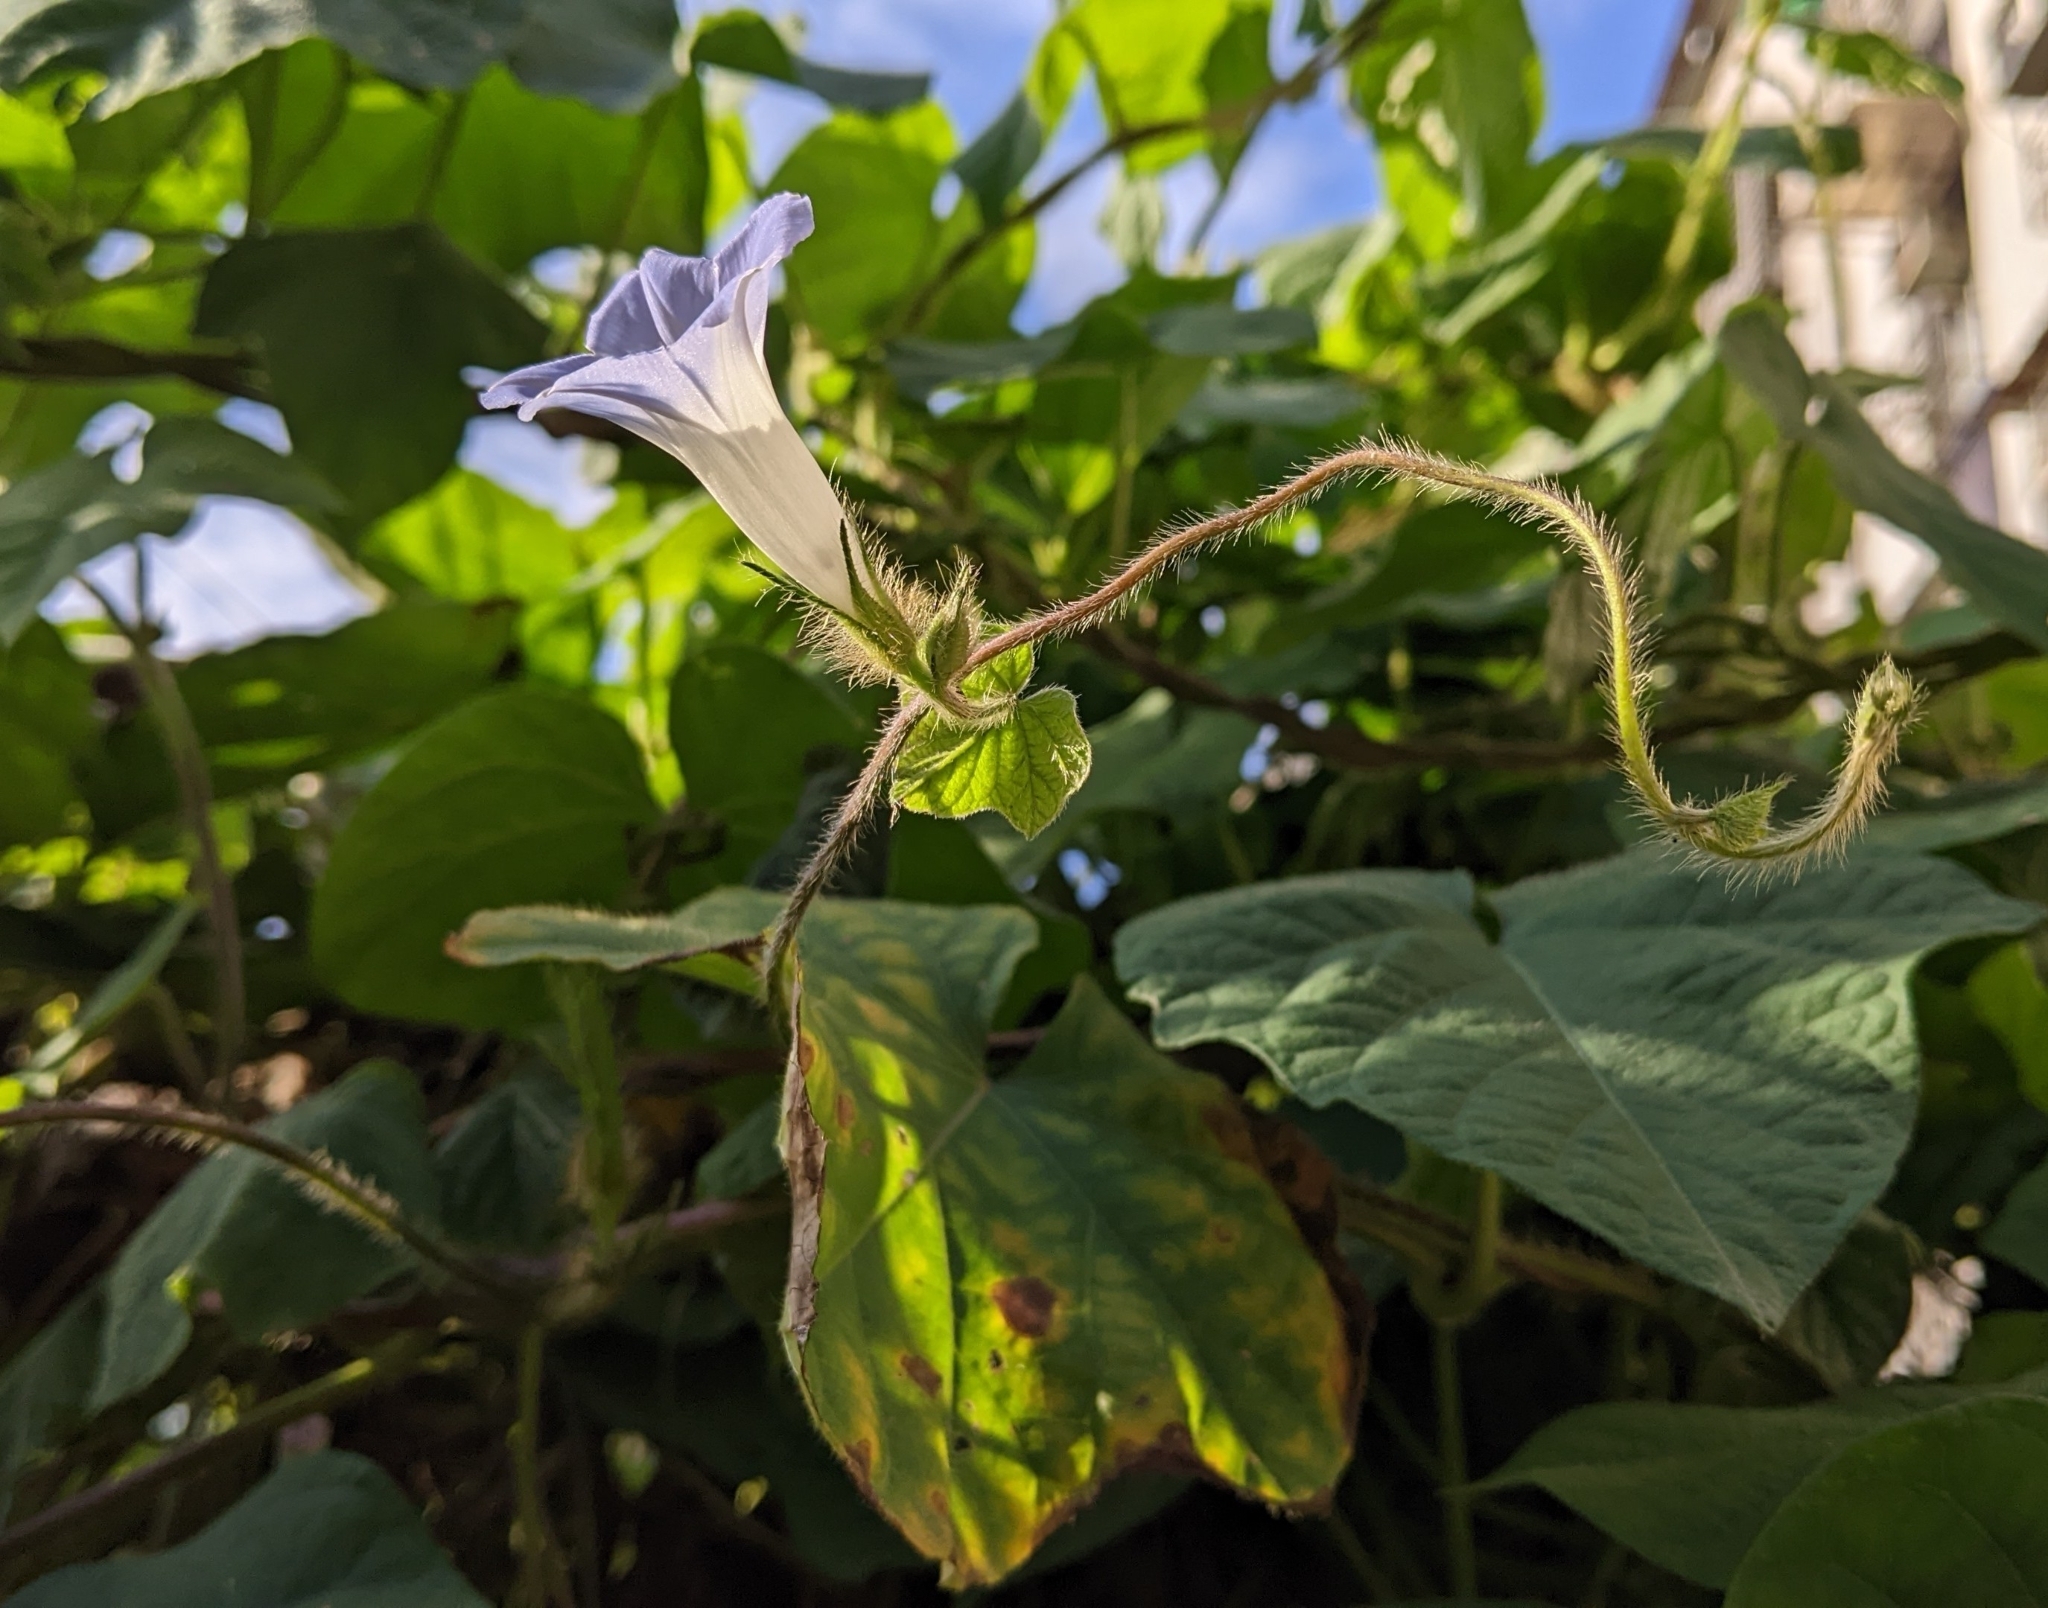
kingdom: Plantae
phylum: Tracheophyta
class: Magnoliopsida
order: Solanales
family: Convolvulaceae
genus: Ipomoea
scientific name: Ipomoea nil
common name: Japanese morning-glory
